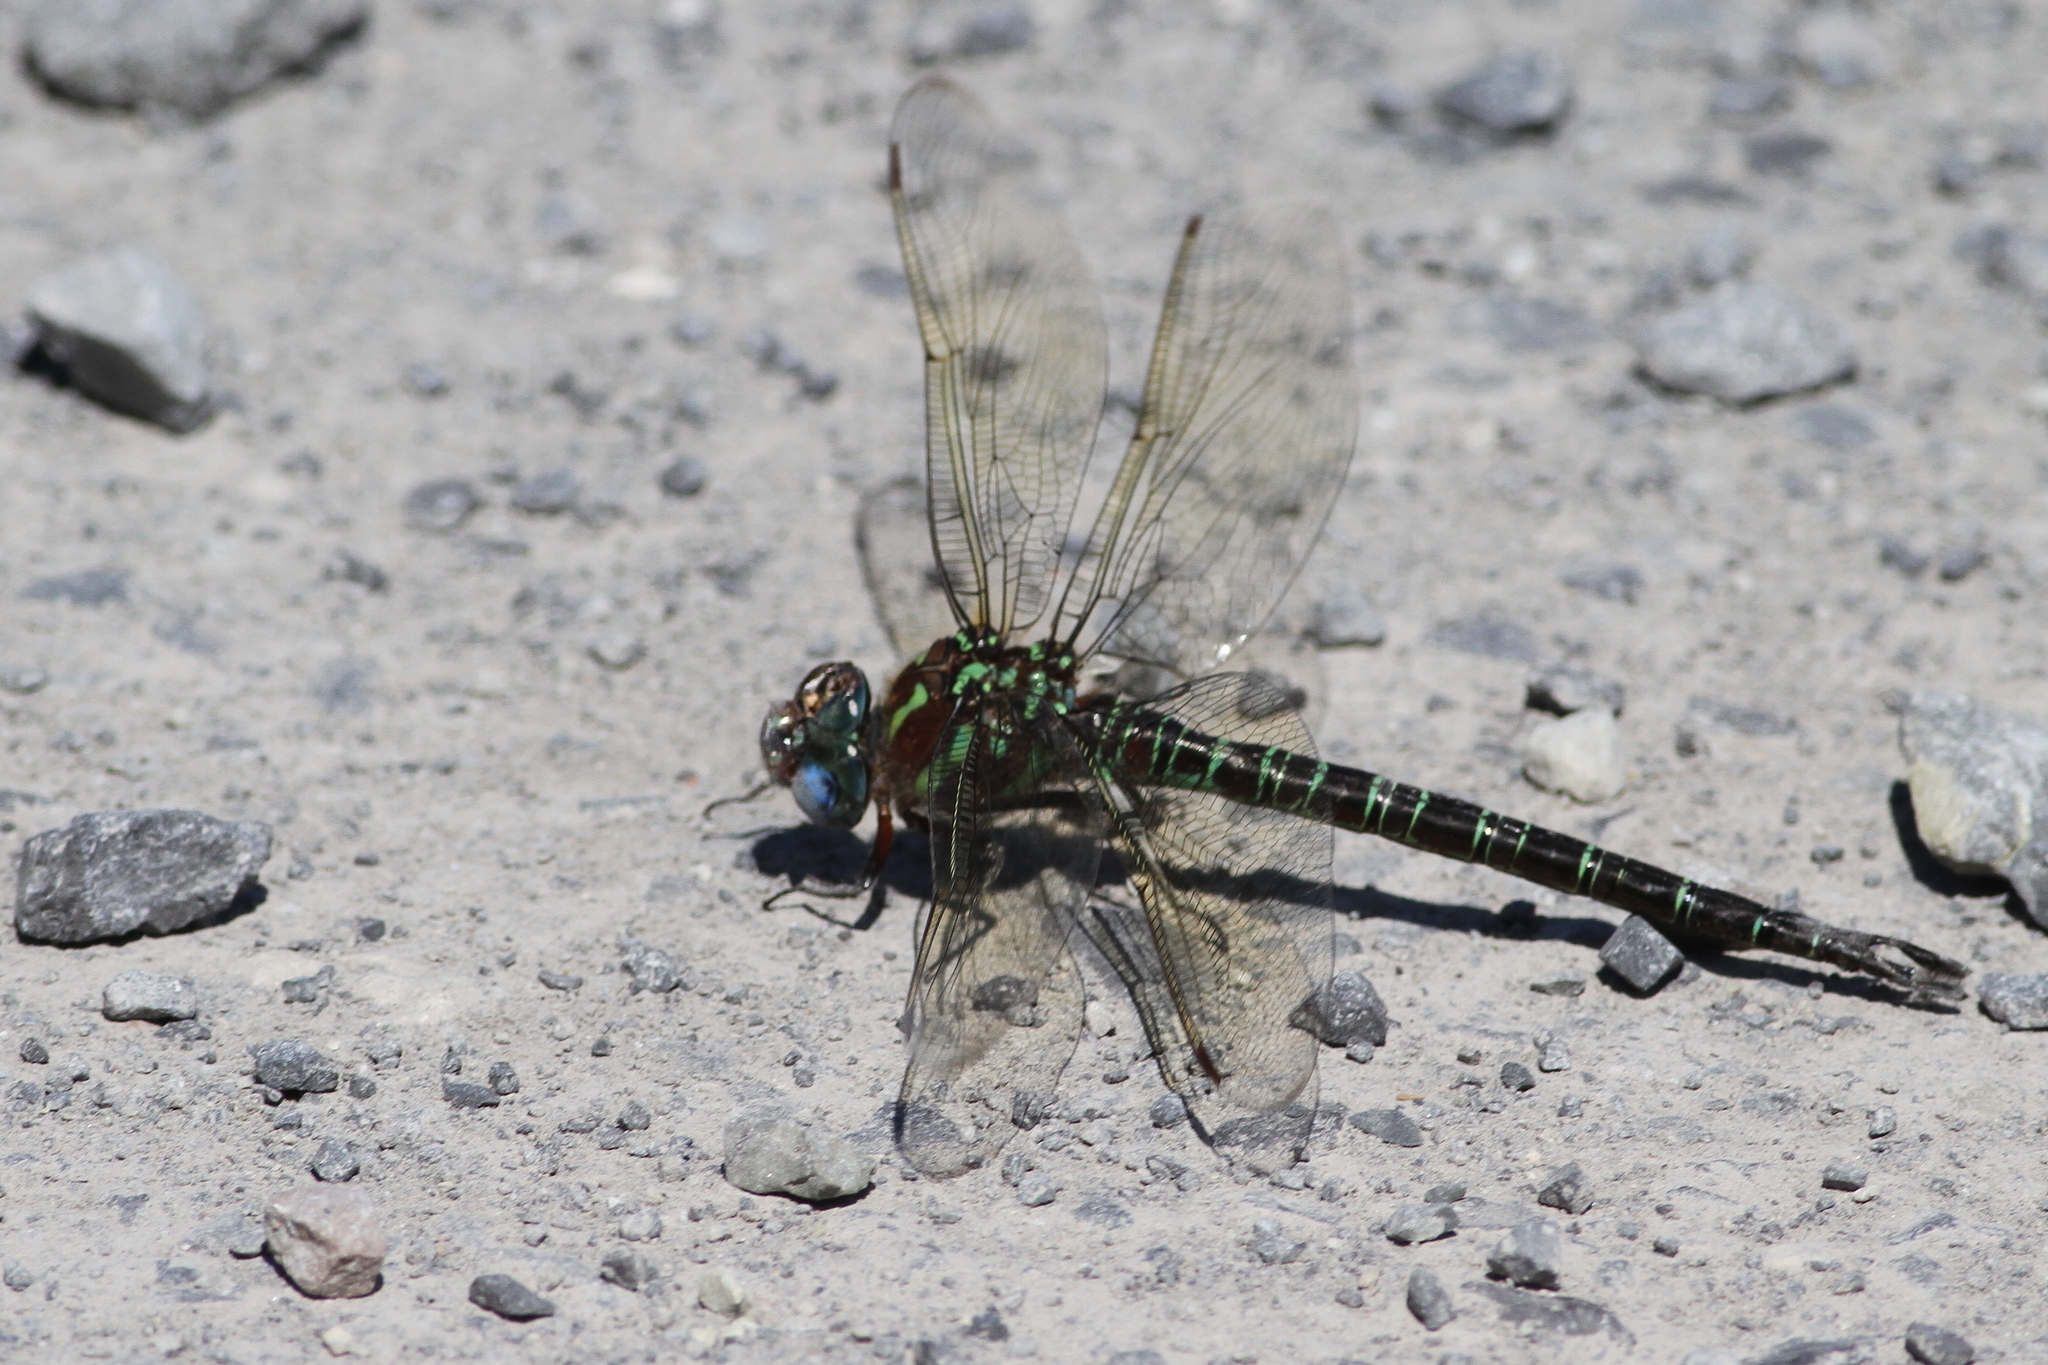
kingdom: Animalia
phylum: Arthropoda
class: Insecta
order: Odonata
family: Aeshnidae
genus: Epiaeschna
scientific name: Epiaeschna heros
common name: Swamp darner
